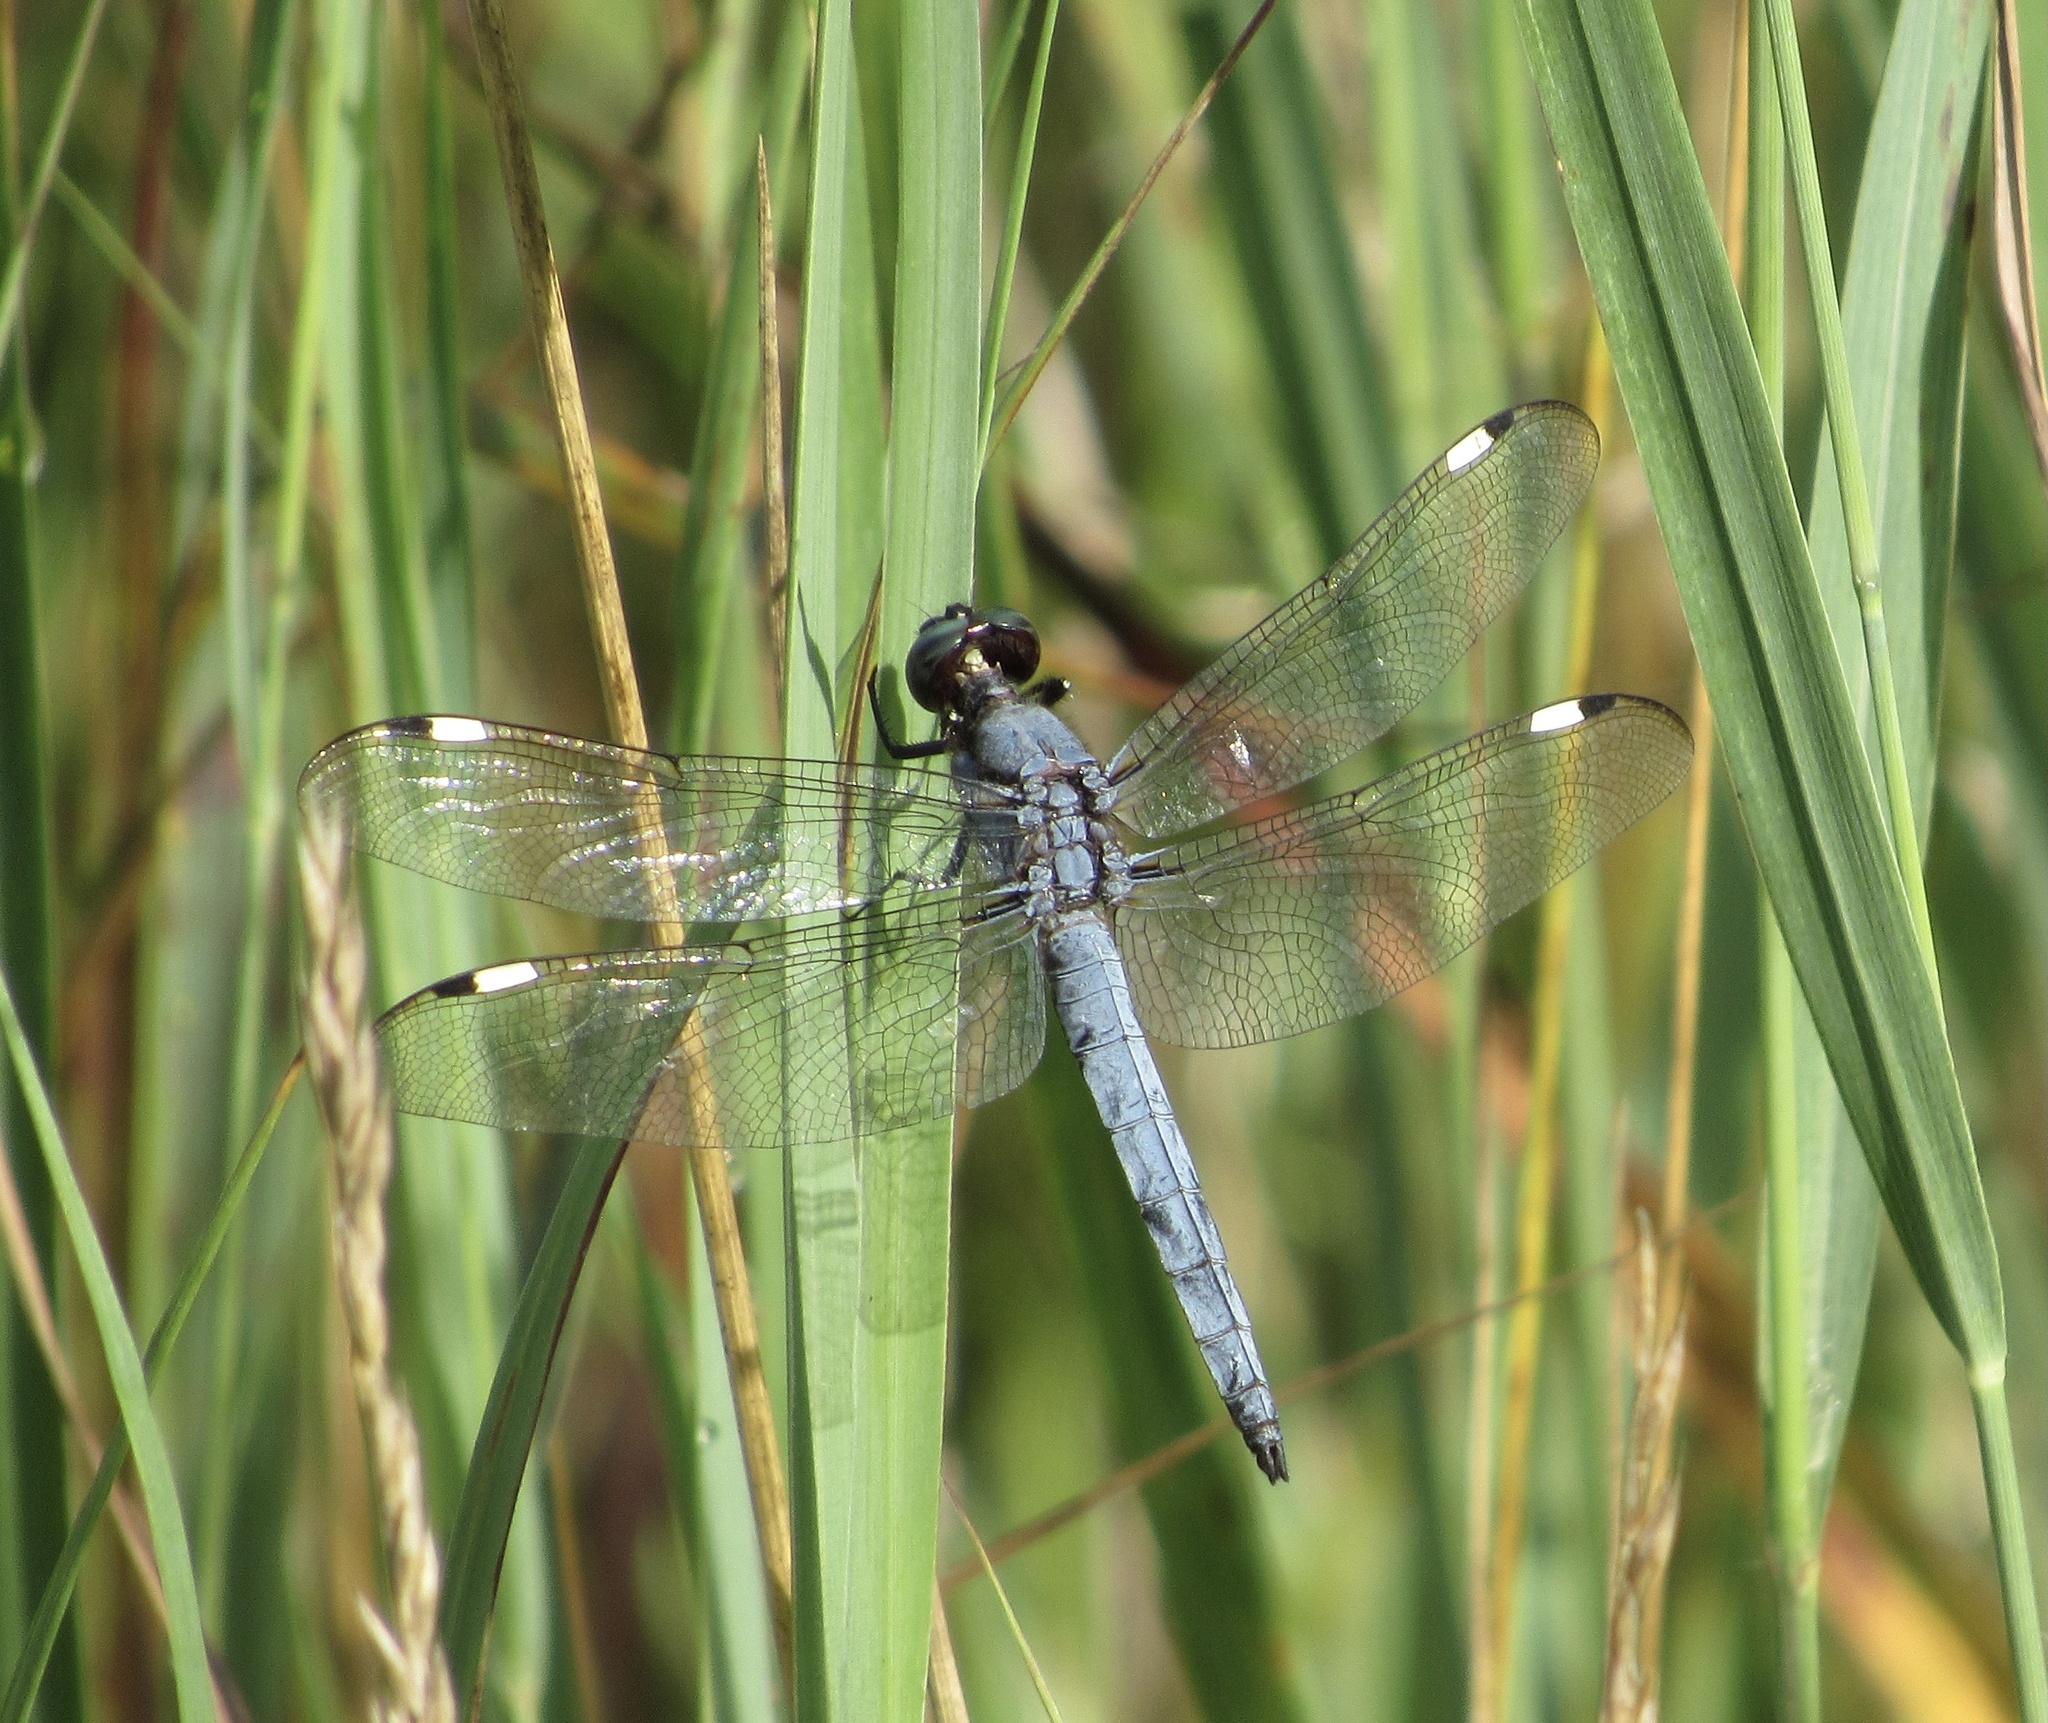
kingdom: Animalia
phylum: Arthropoda
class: Insecta
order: Odonata
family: Libellulidae
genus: Libellula
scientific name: Libellula cyanea
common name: Spangled skimmer
